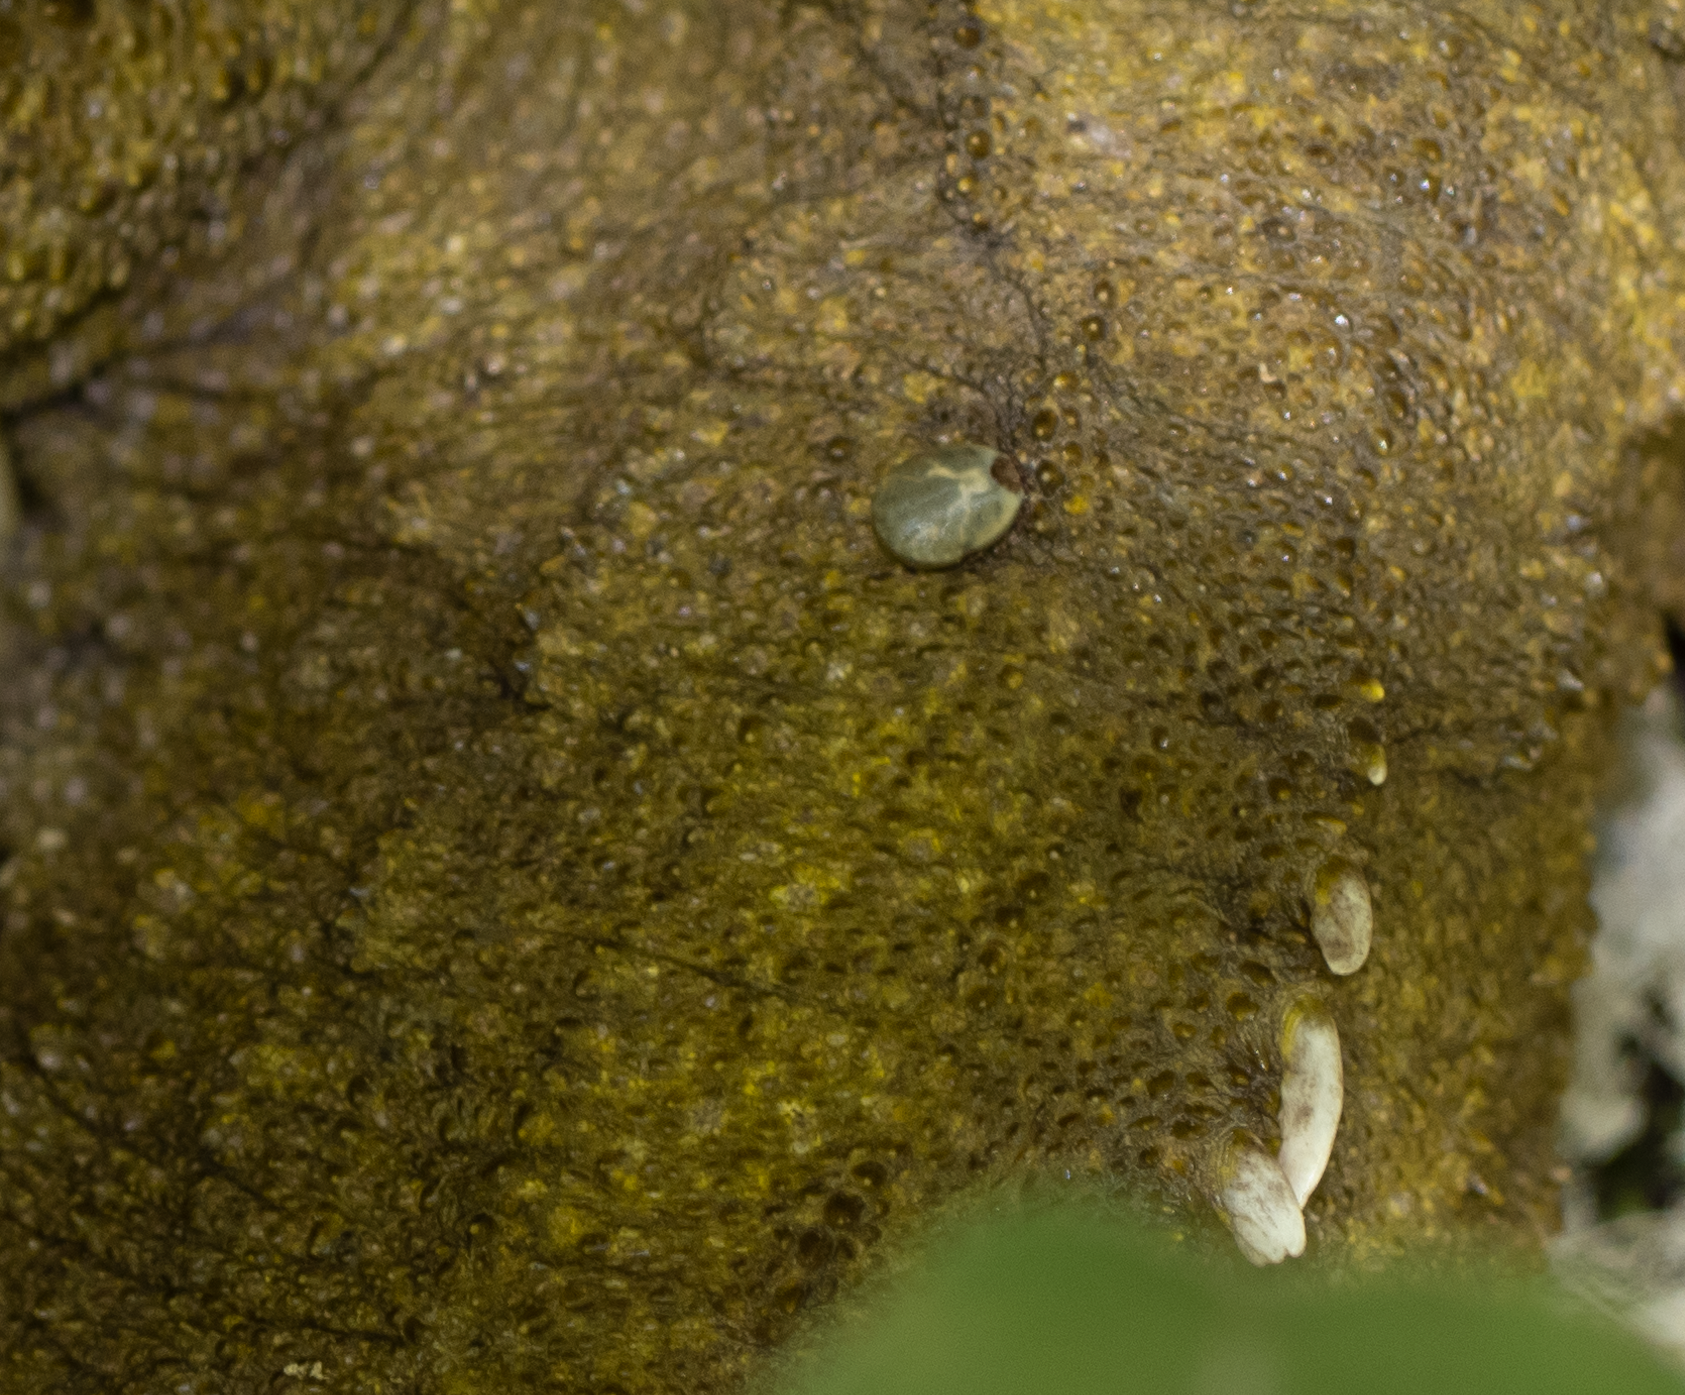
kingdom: Animalia
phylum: Arthropoda
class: Arachnida
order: Ixodida
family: Ixodidae
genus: Archaeocroton
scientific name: Archaeocroton sphenodonti
